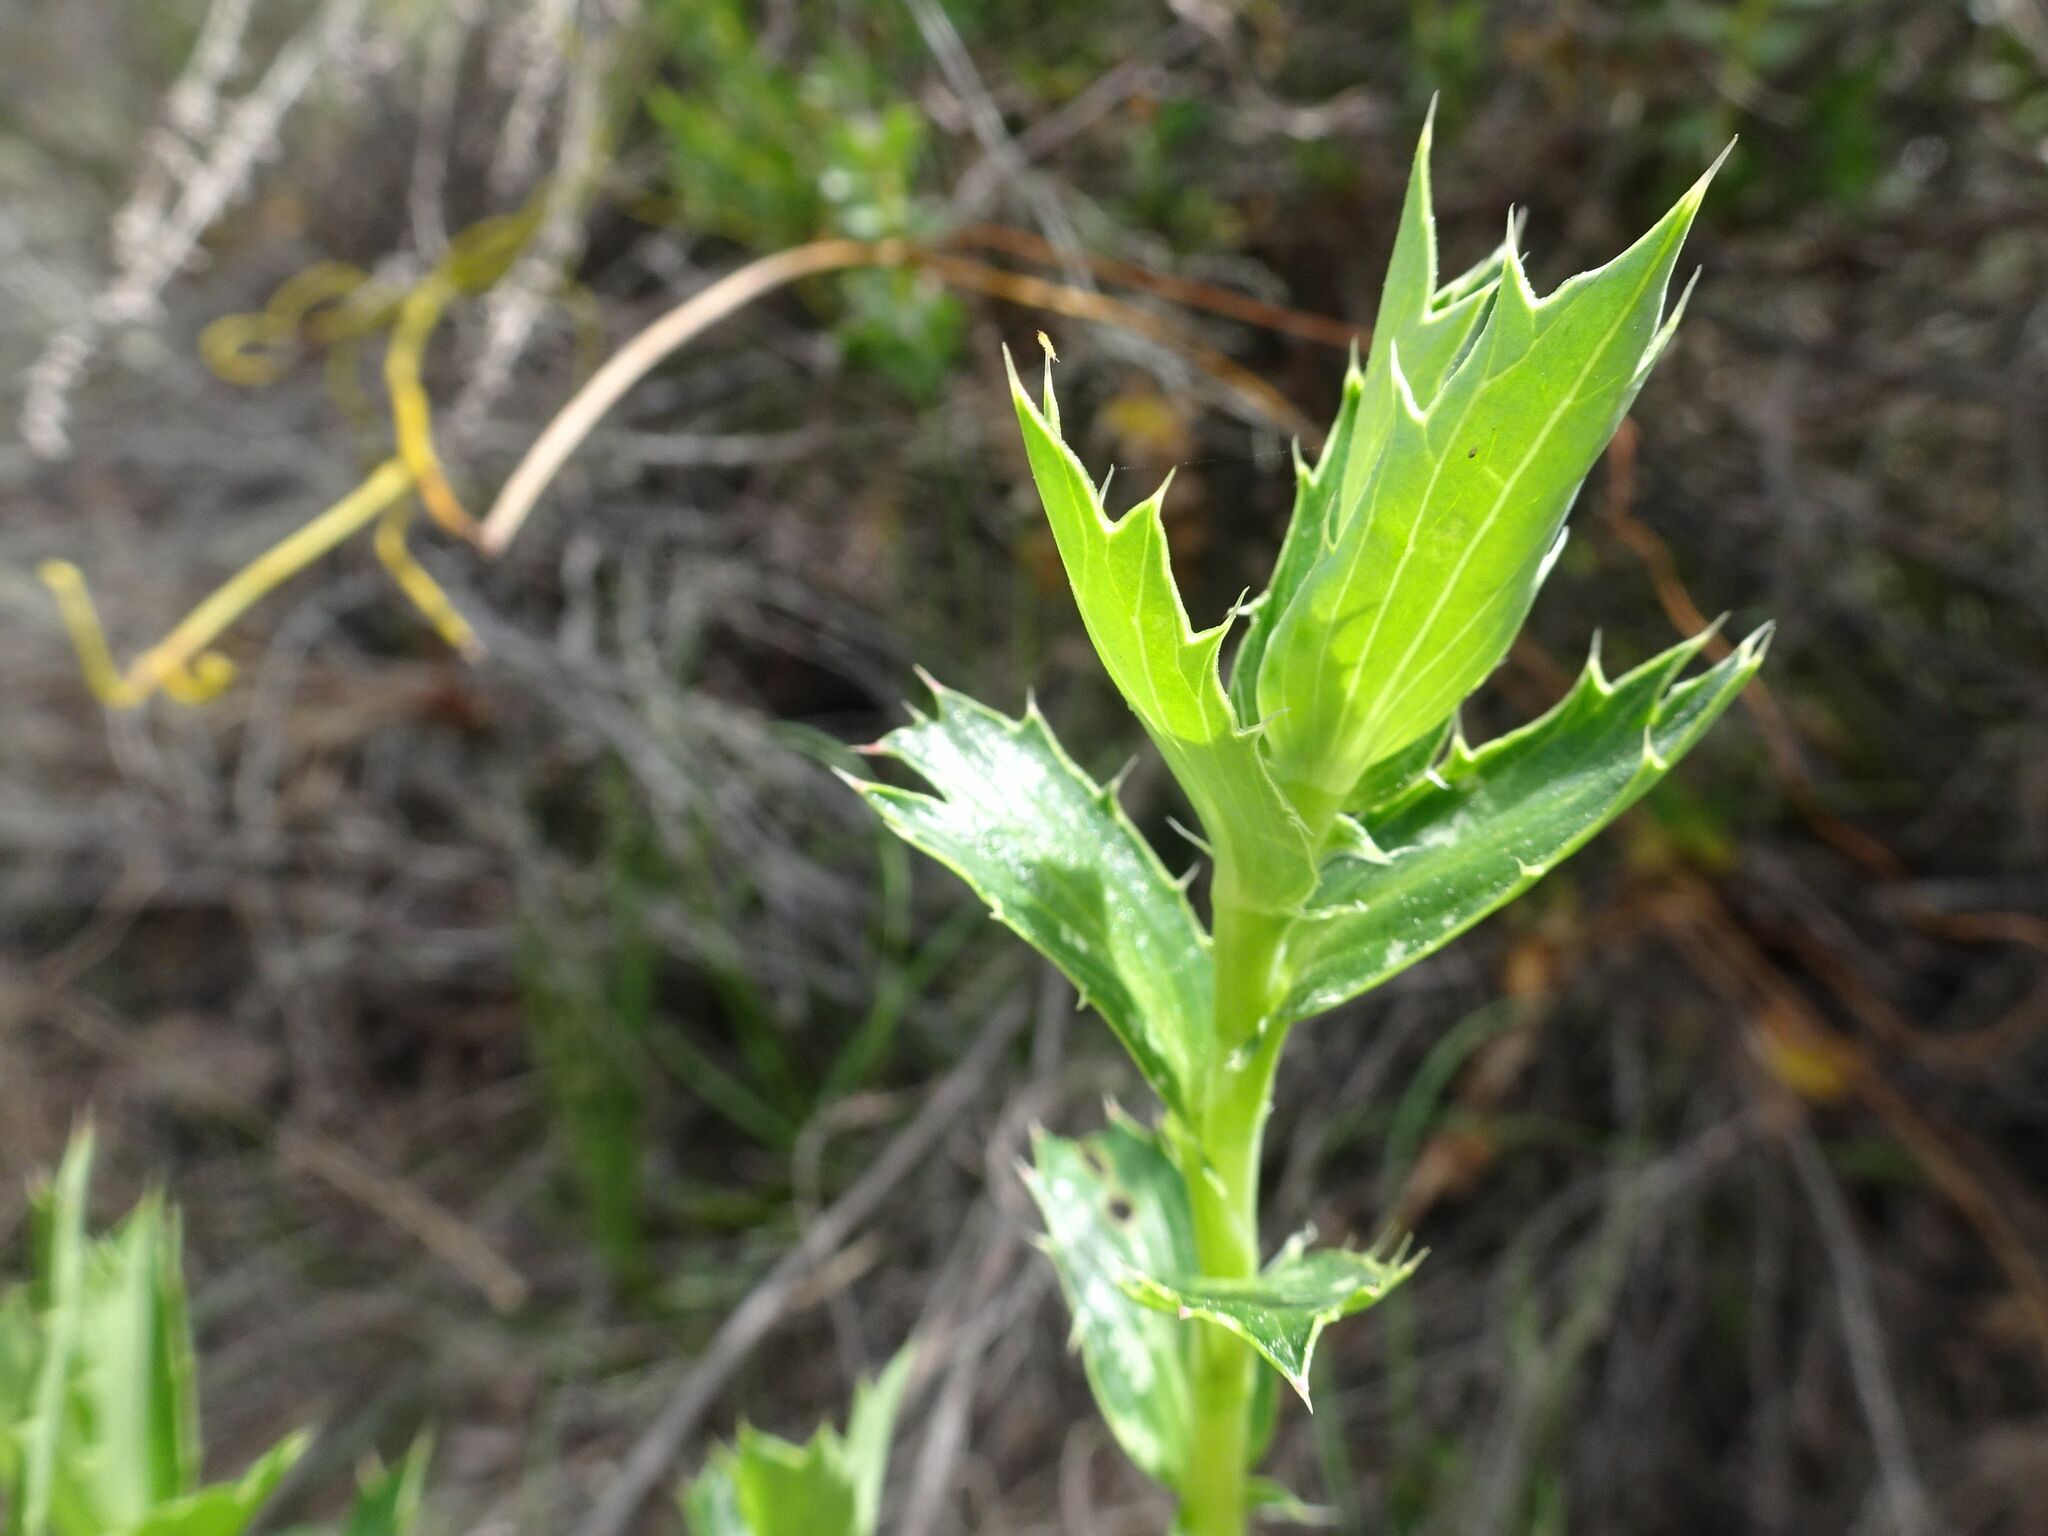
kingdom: Plantae
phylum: Tracheophyta
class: Magnoliopsida
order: Rosales
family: Rosaceae
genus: Cliffortia
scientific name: Cliffortia ilicifolia
